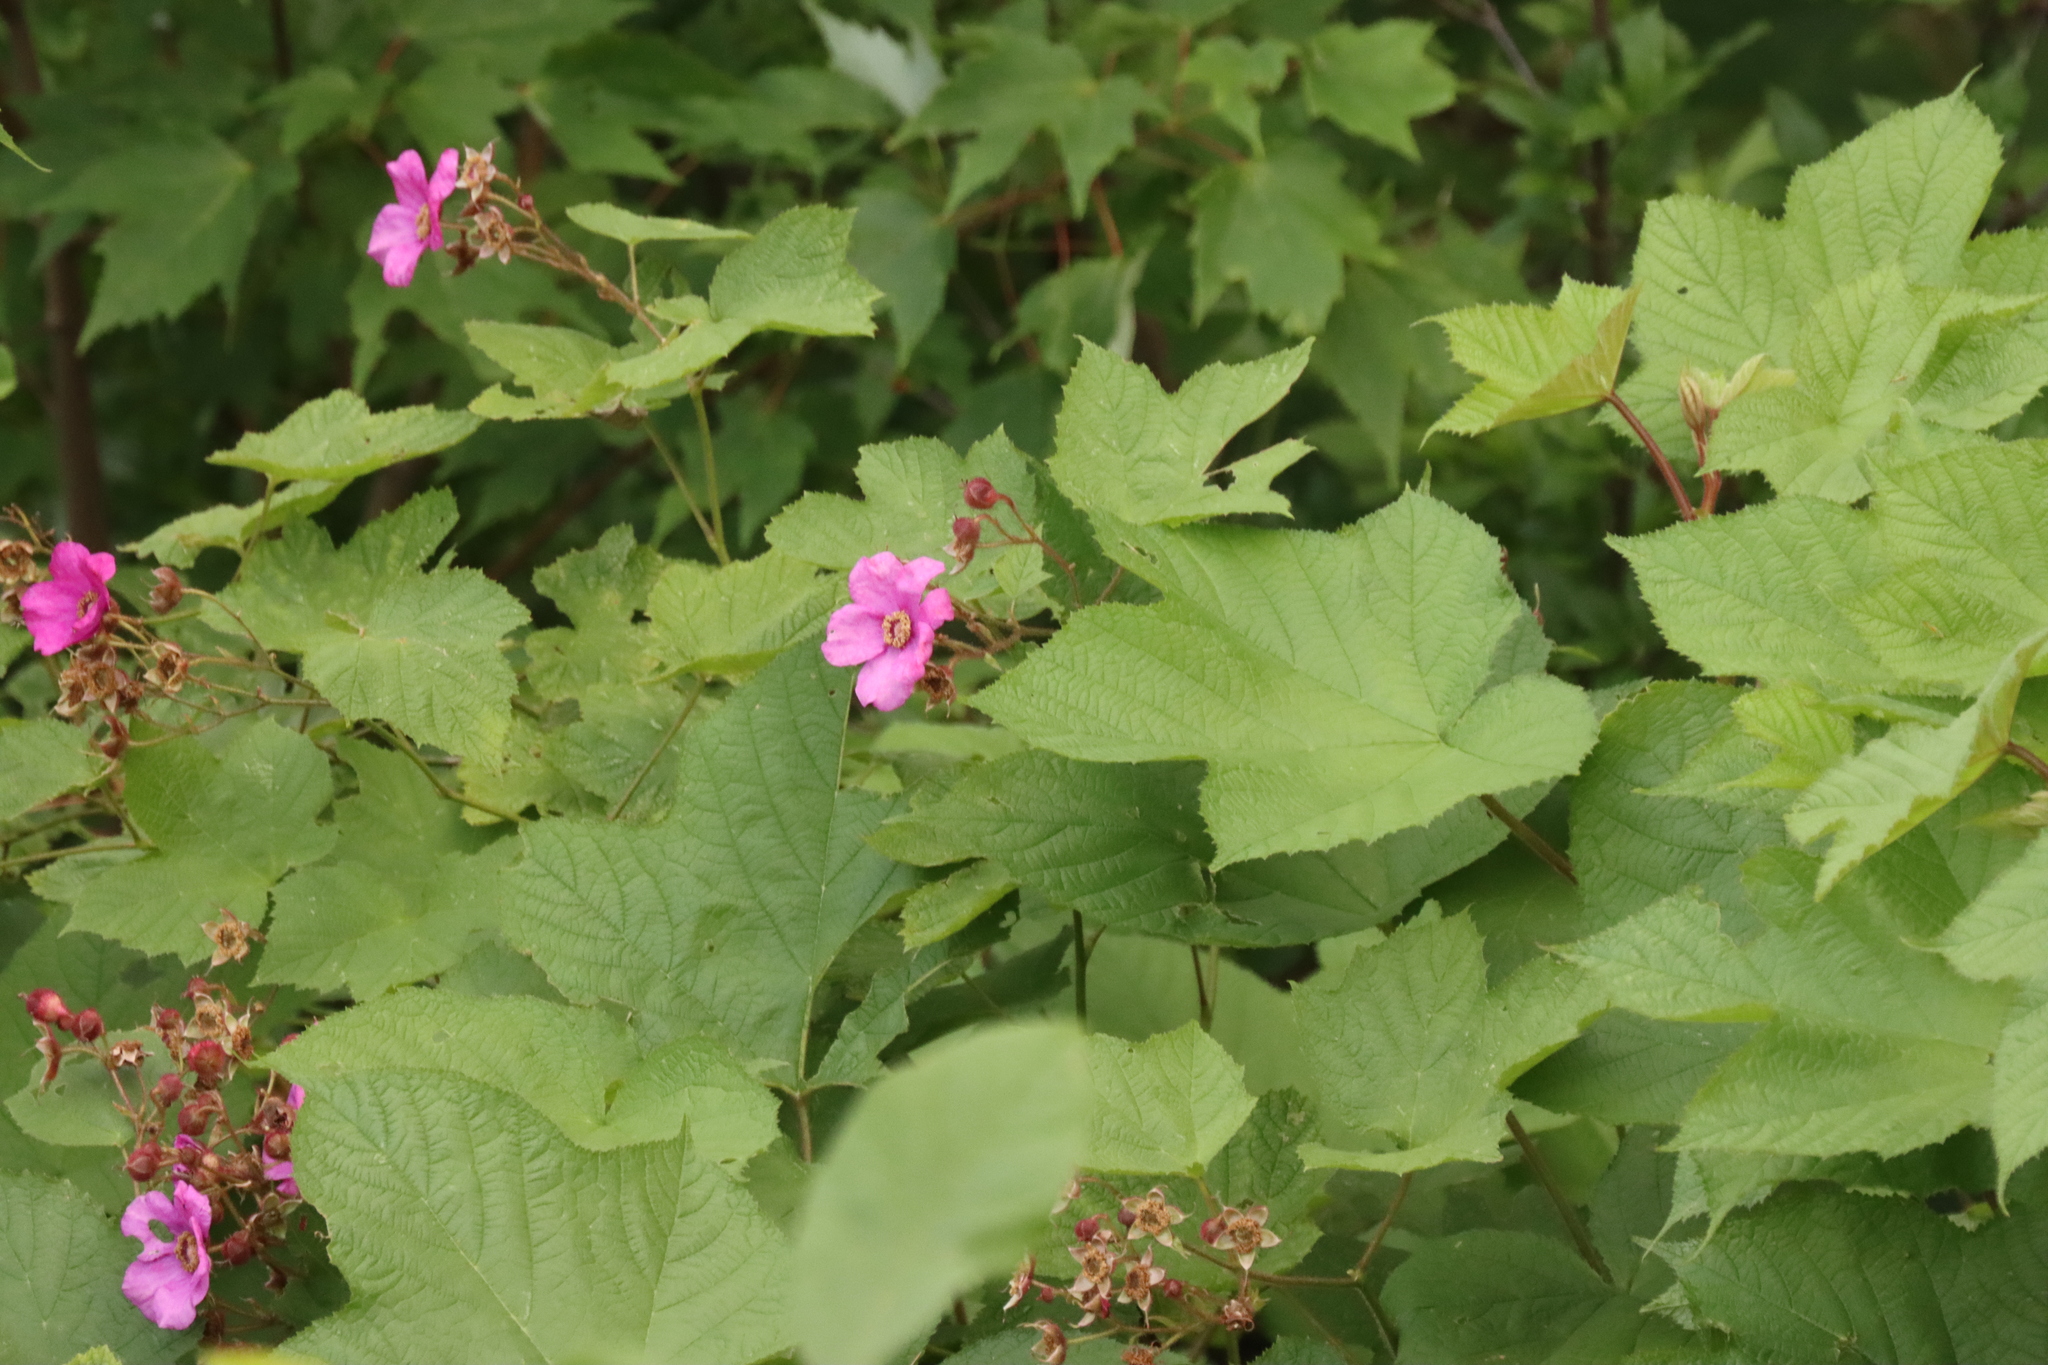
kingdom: Plantae
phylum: Tracheophyta
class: Magnoliopsida
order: Rosales
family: Rosaceae
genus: Rubus
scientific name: Rubus odoratus
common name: Purple-flowered raspberry
